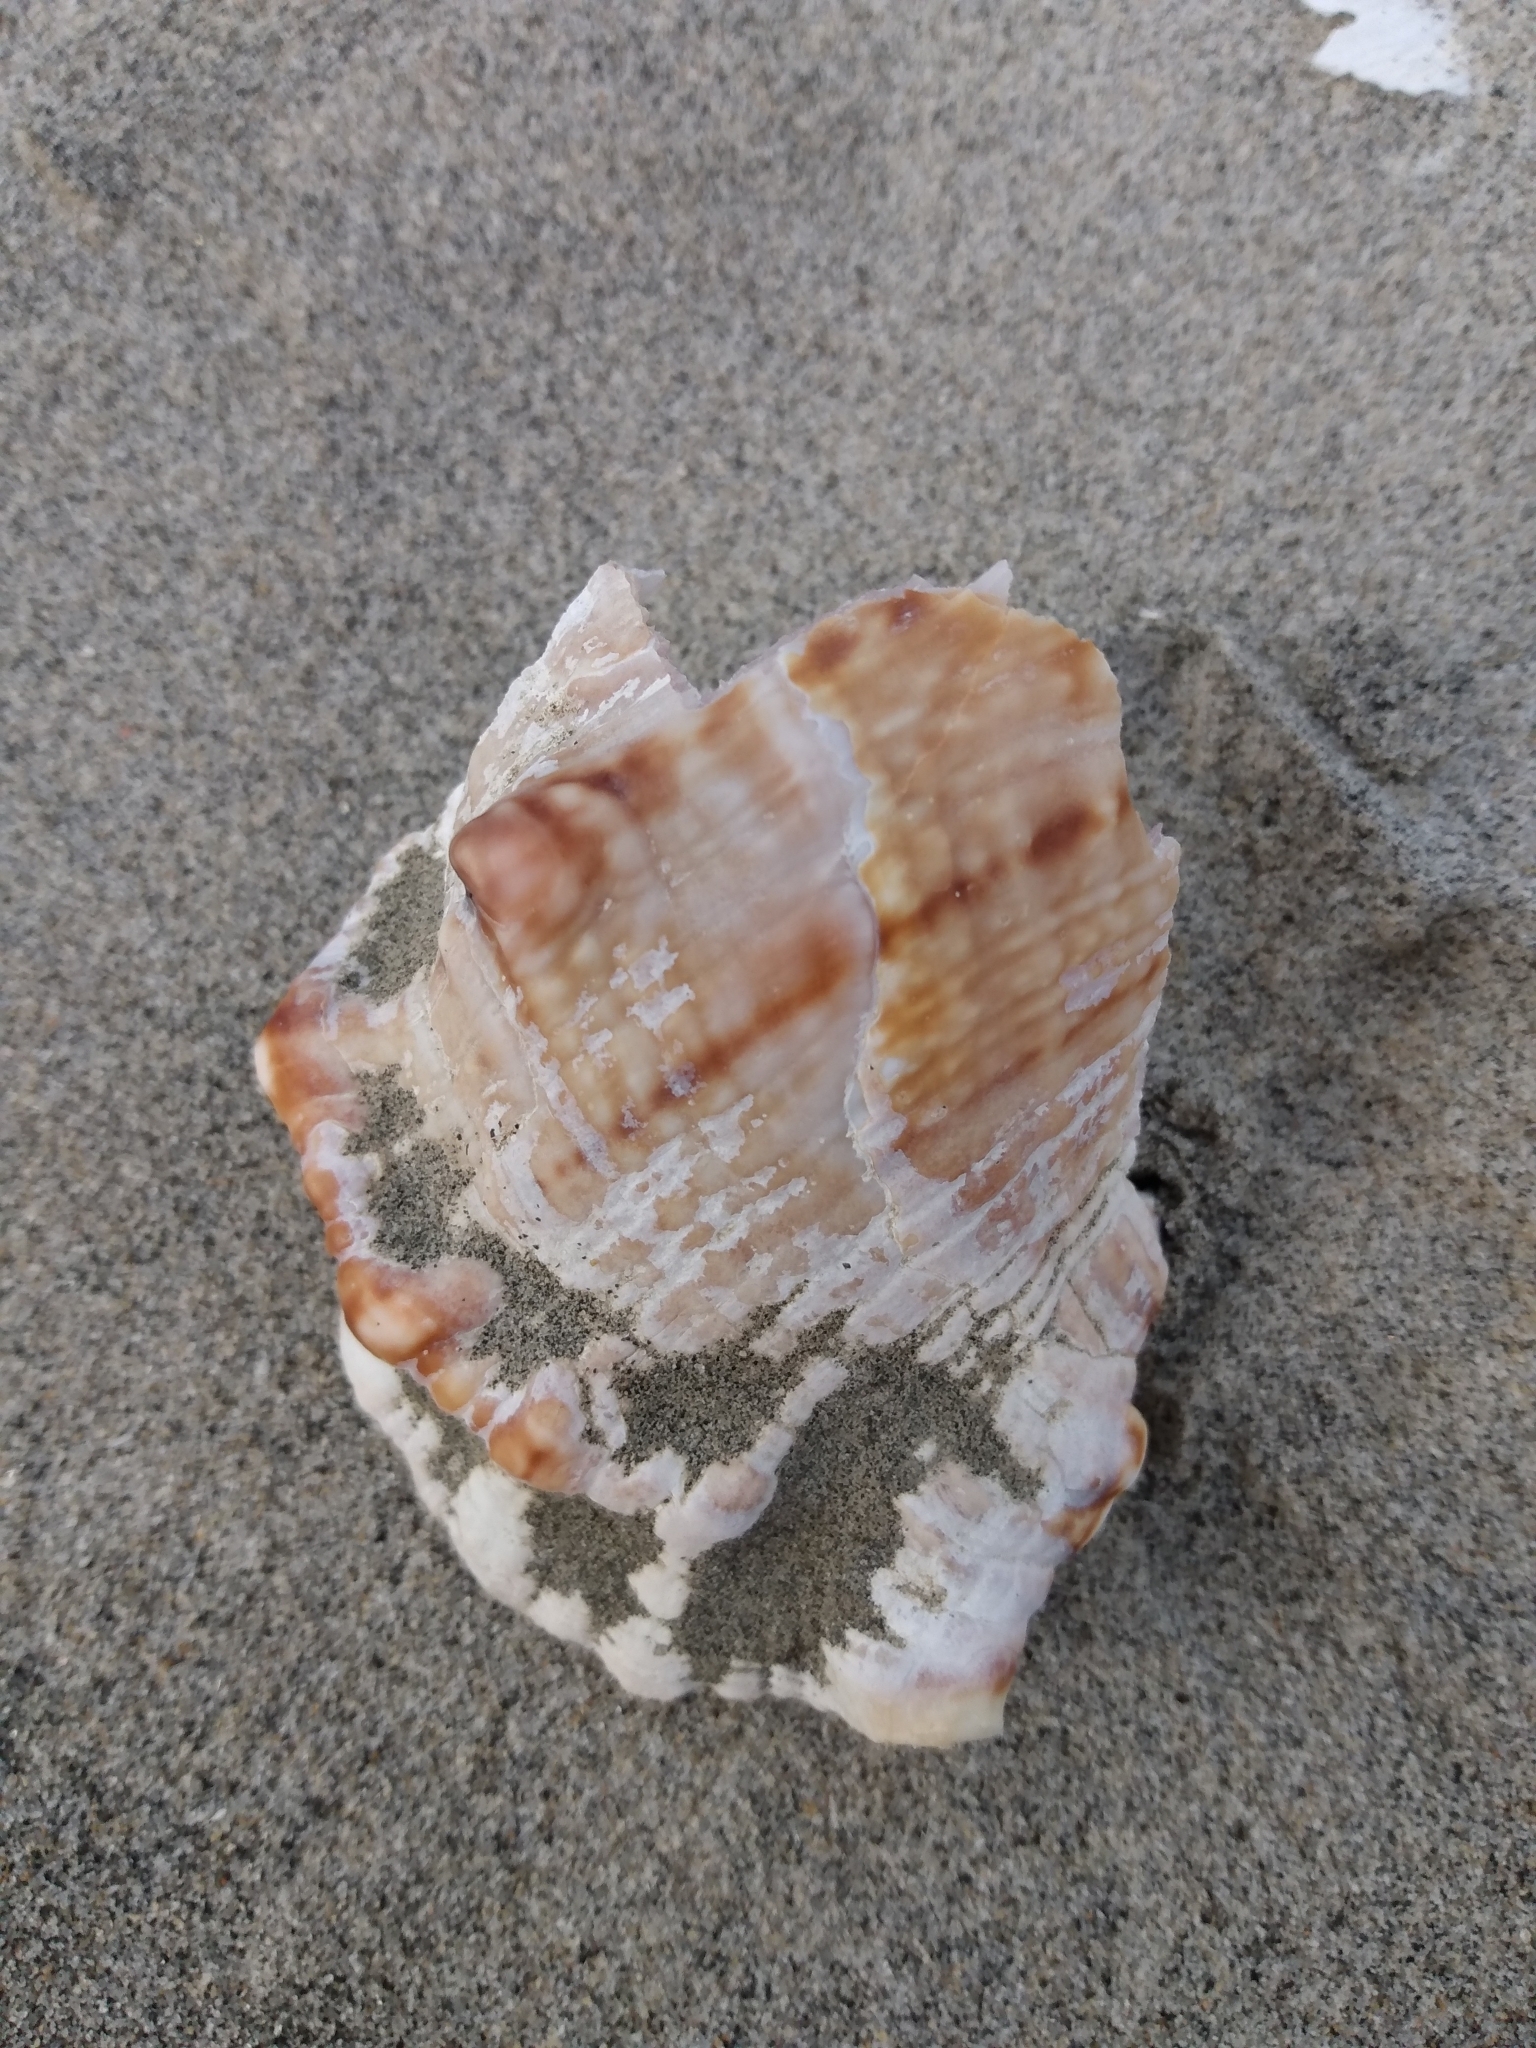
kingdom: Animalia
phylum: Mollusca
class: Gastropoda
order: Littorinimorpha
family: Bursidae
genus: Crossata
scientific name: Crossata californica
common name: California frogsnail
